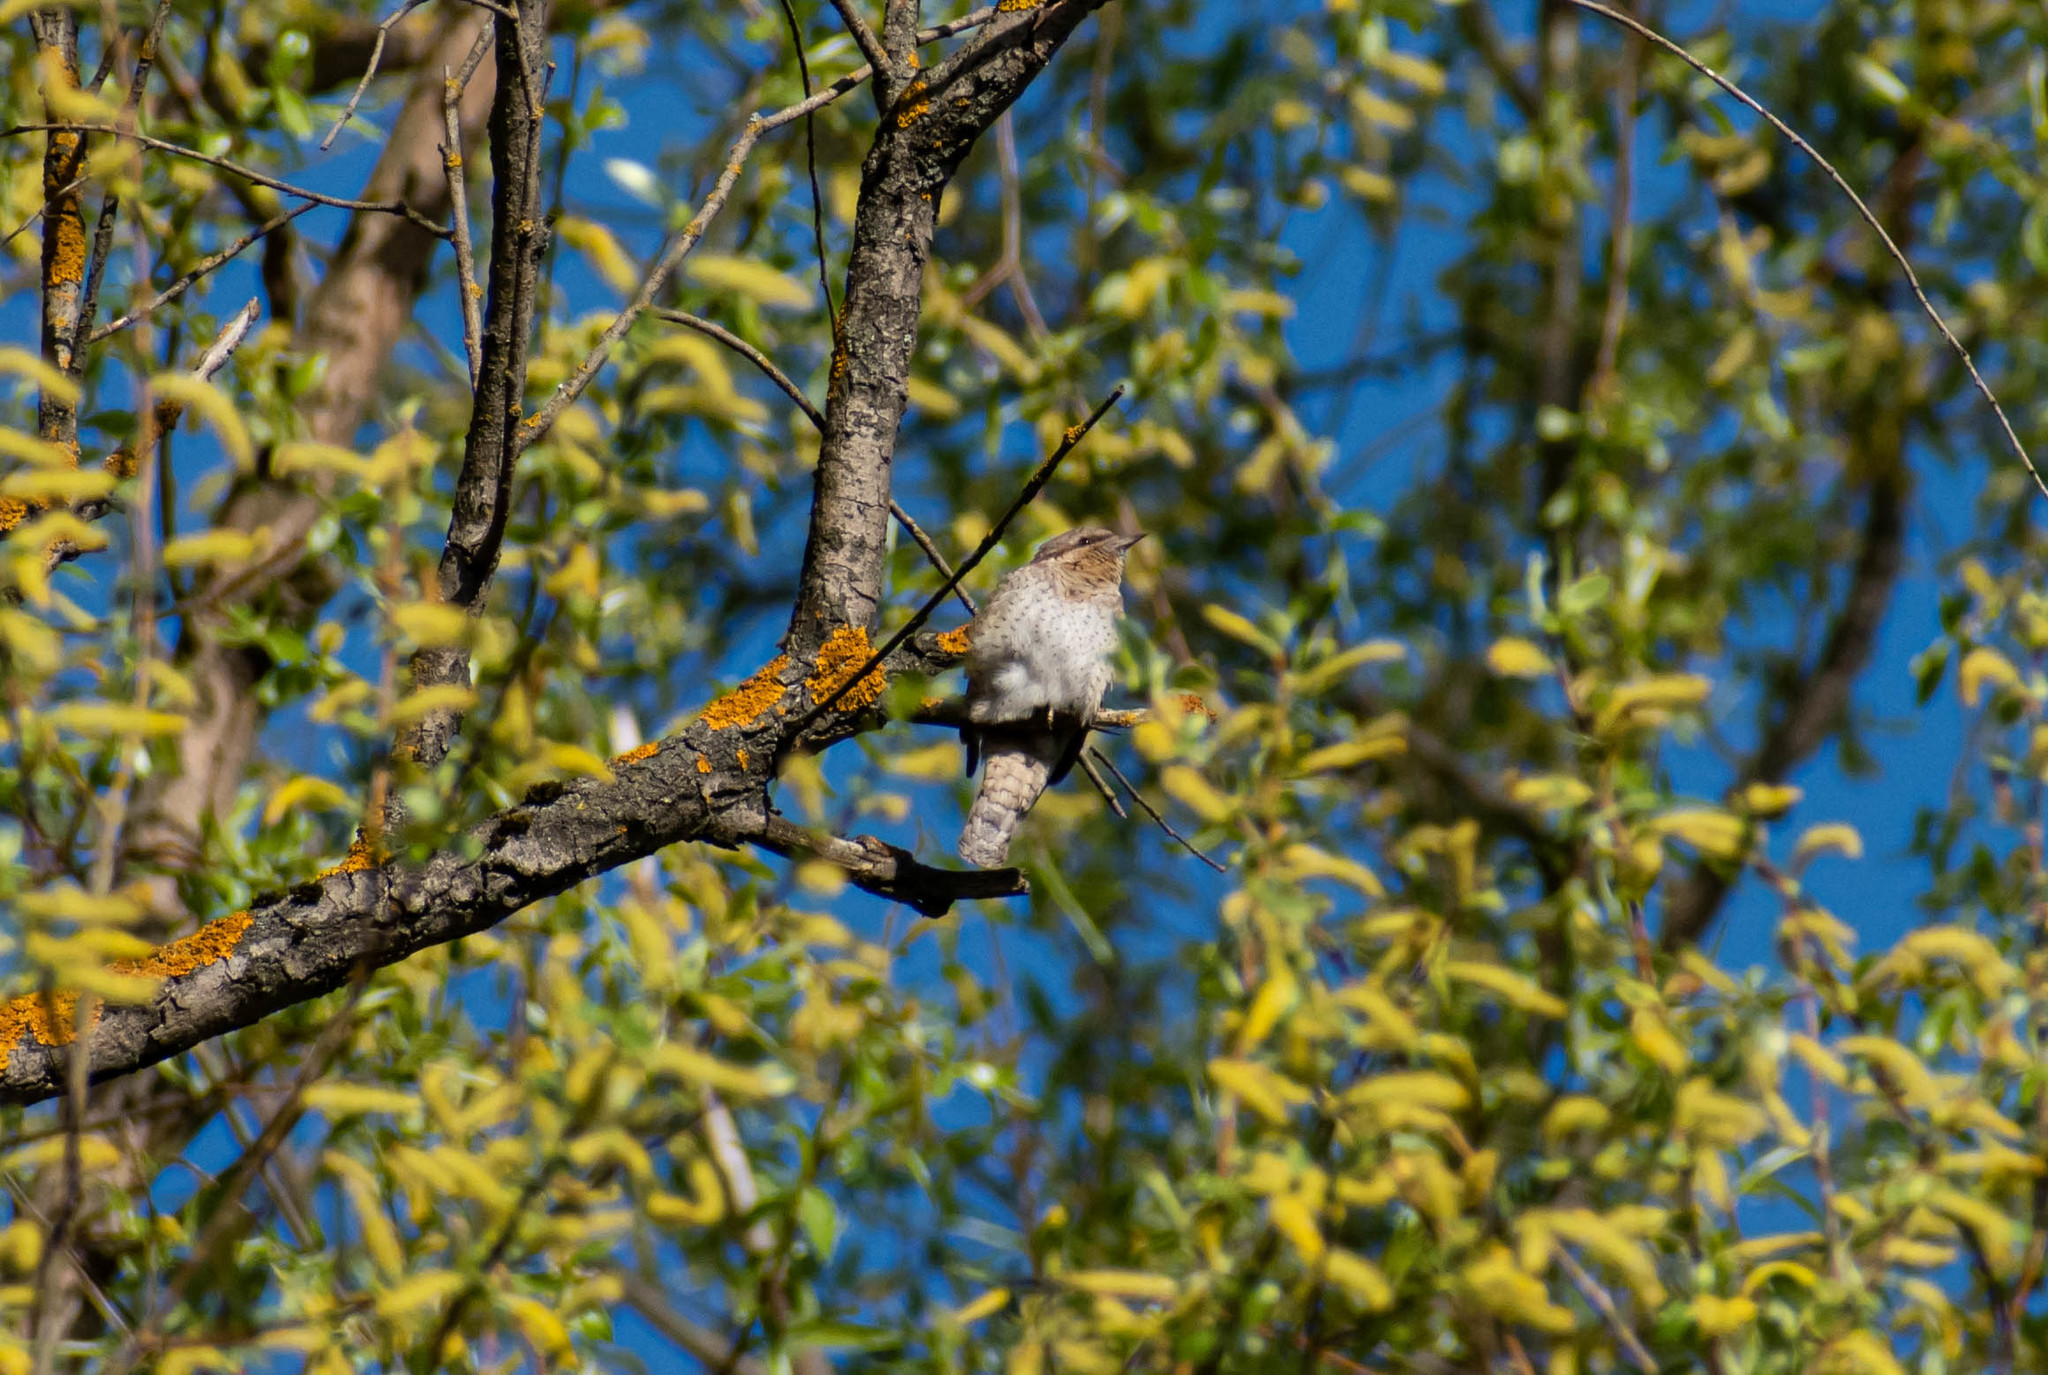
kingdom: Animalia
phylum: Chordata
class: Aves
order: Piciformes
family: Picidae
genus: Jynx
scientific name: Jynx torquilla
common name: Eurasian wryneck
